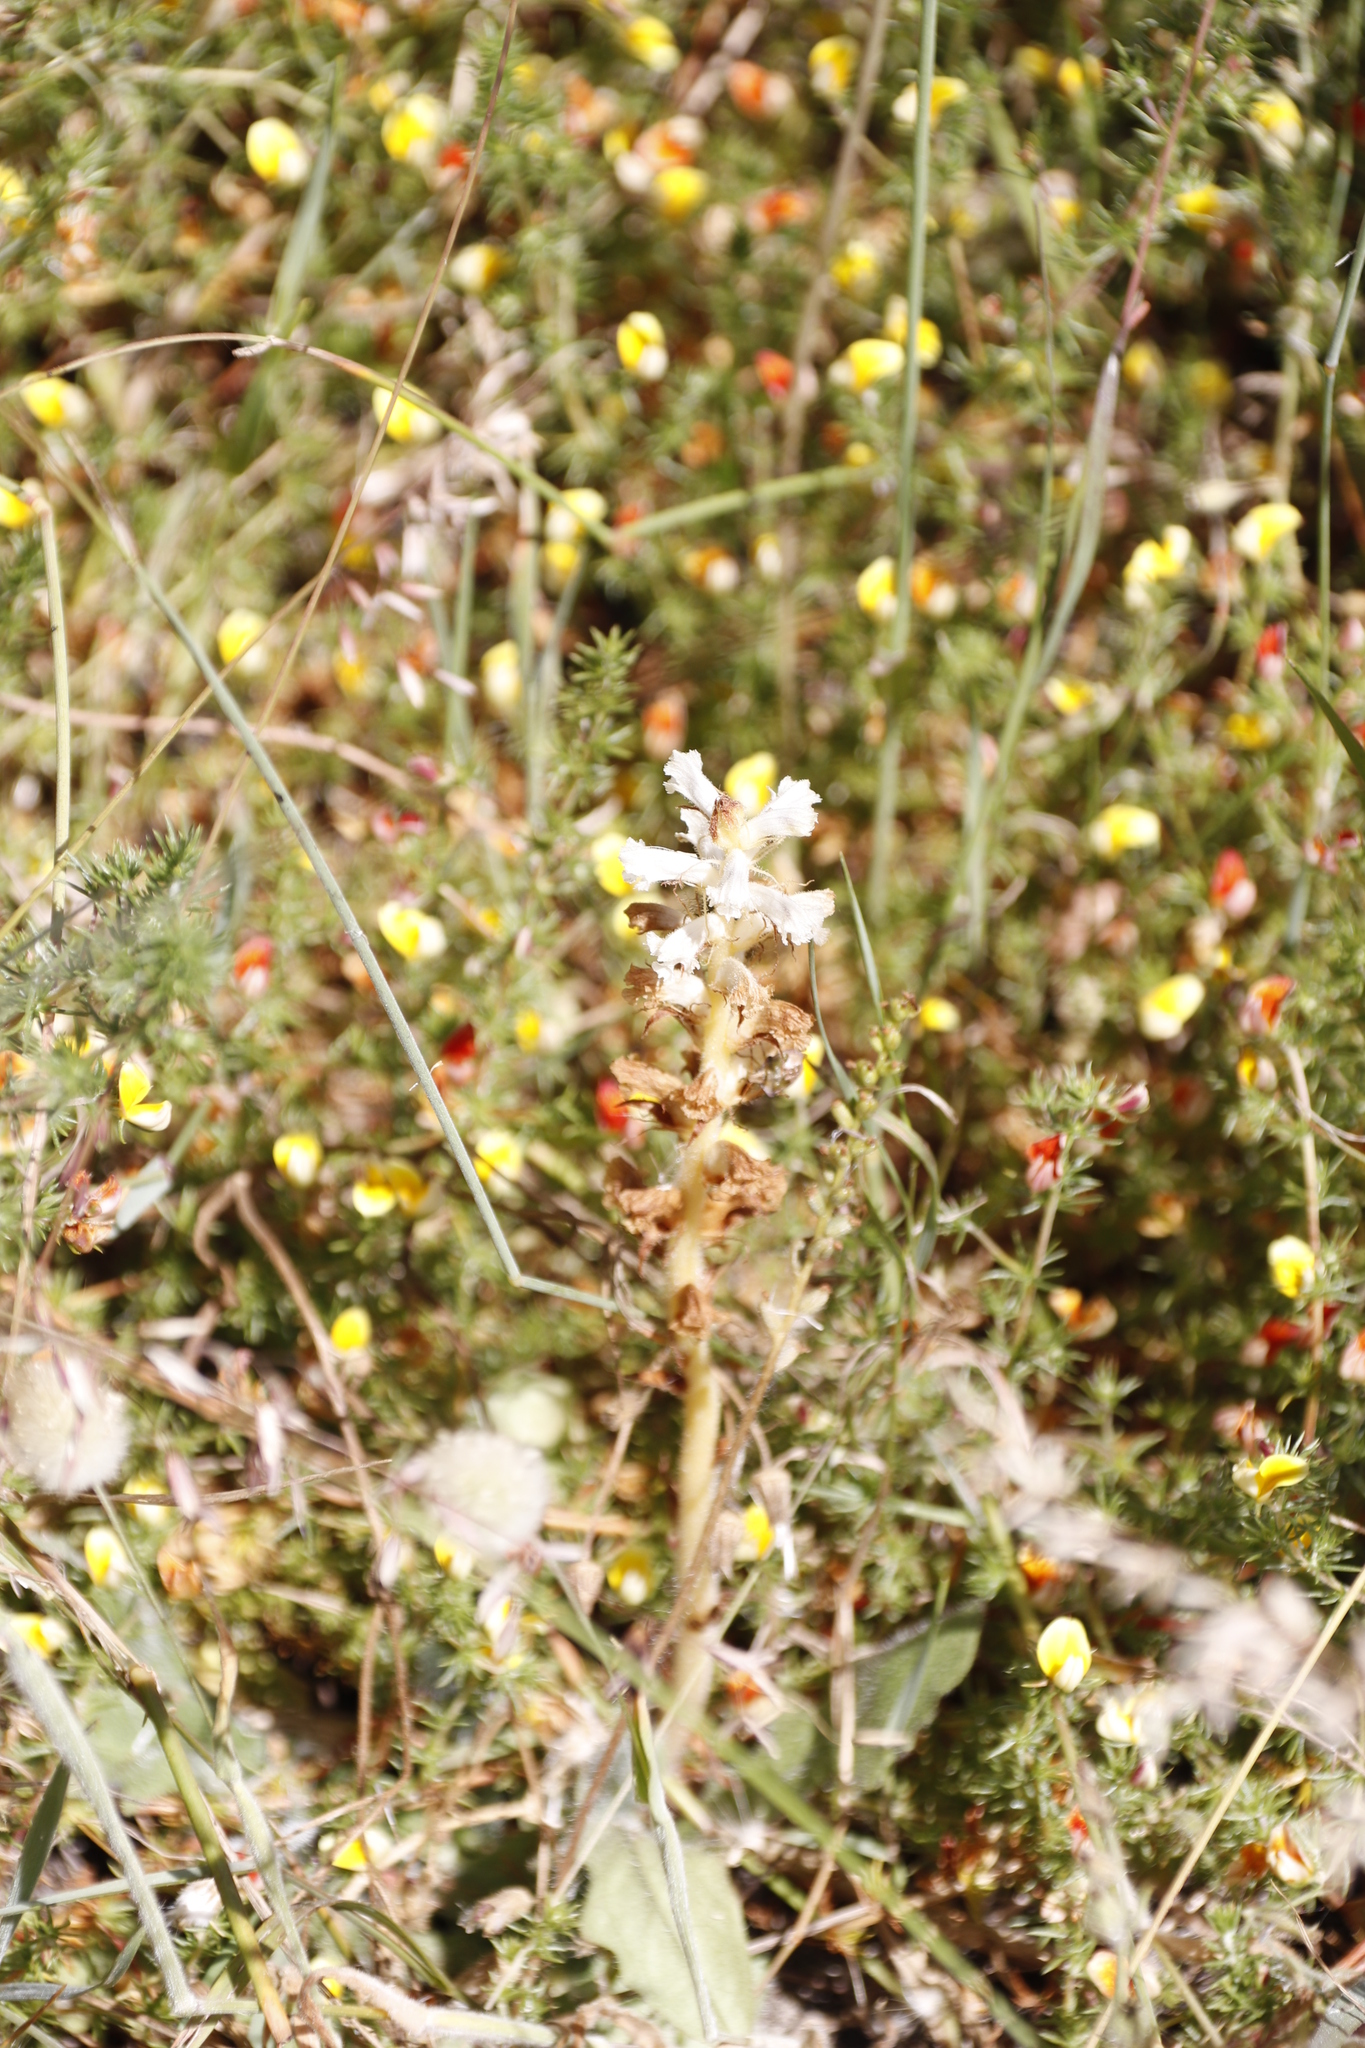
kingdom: Plantae
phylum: Tracheophyta
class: Magnoliopsida
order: Lamiales
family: Orobanchaceae
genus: Orobanche
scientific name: Orobanche minor
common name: Common broomrape
